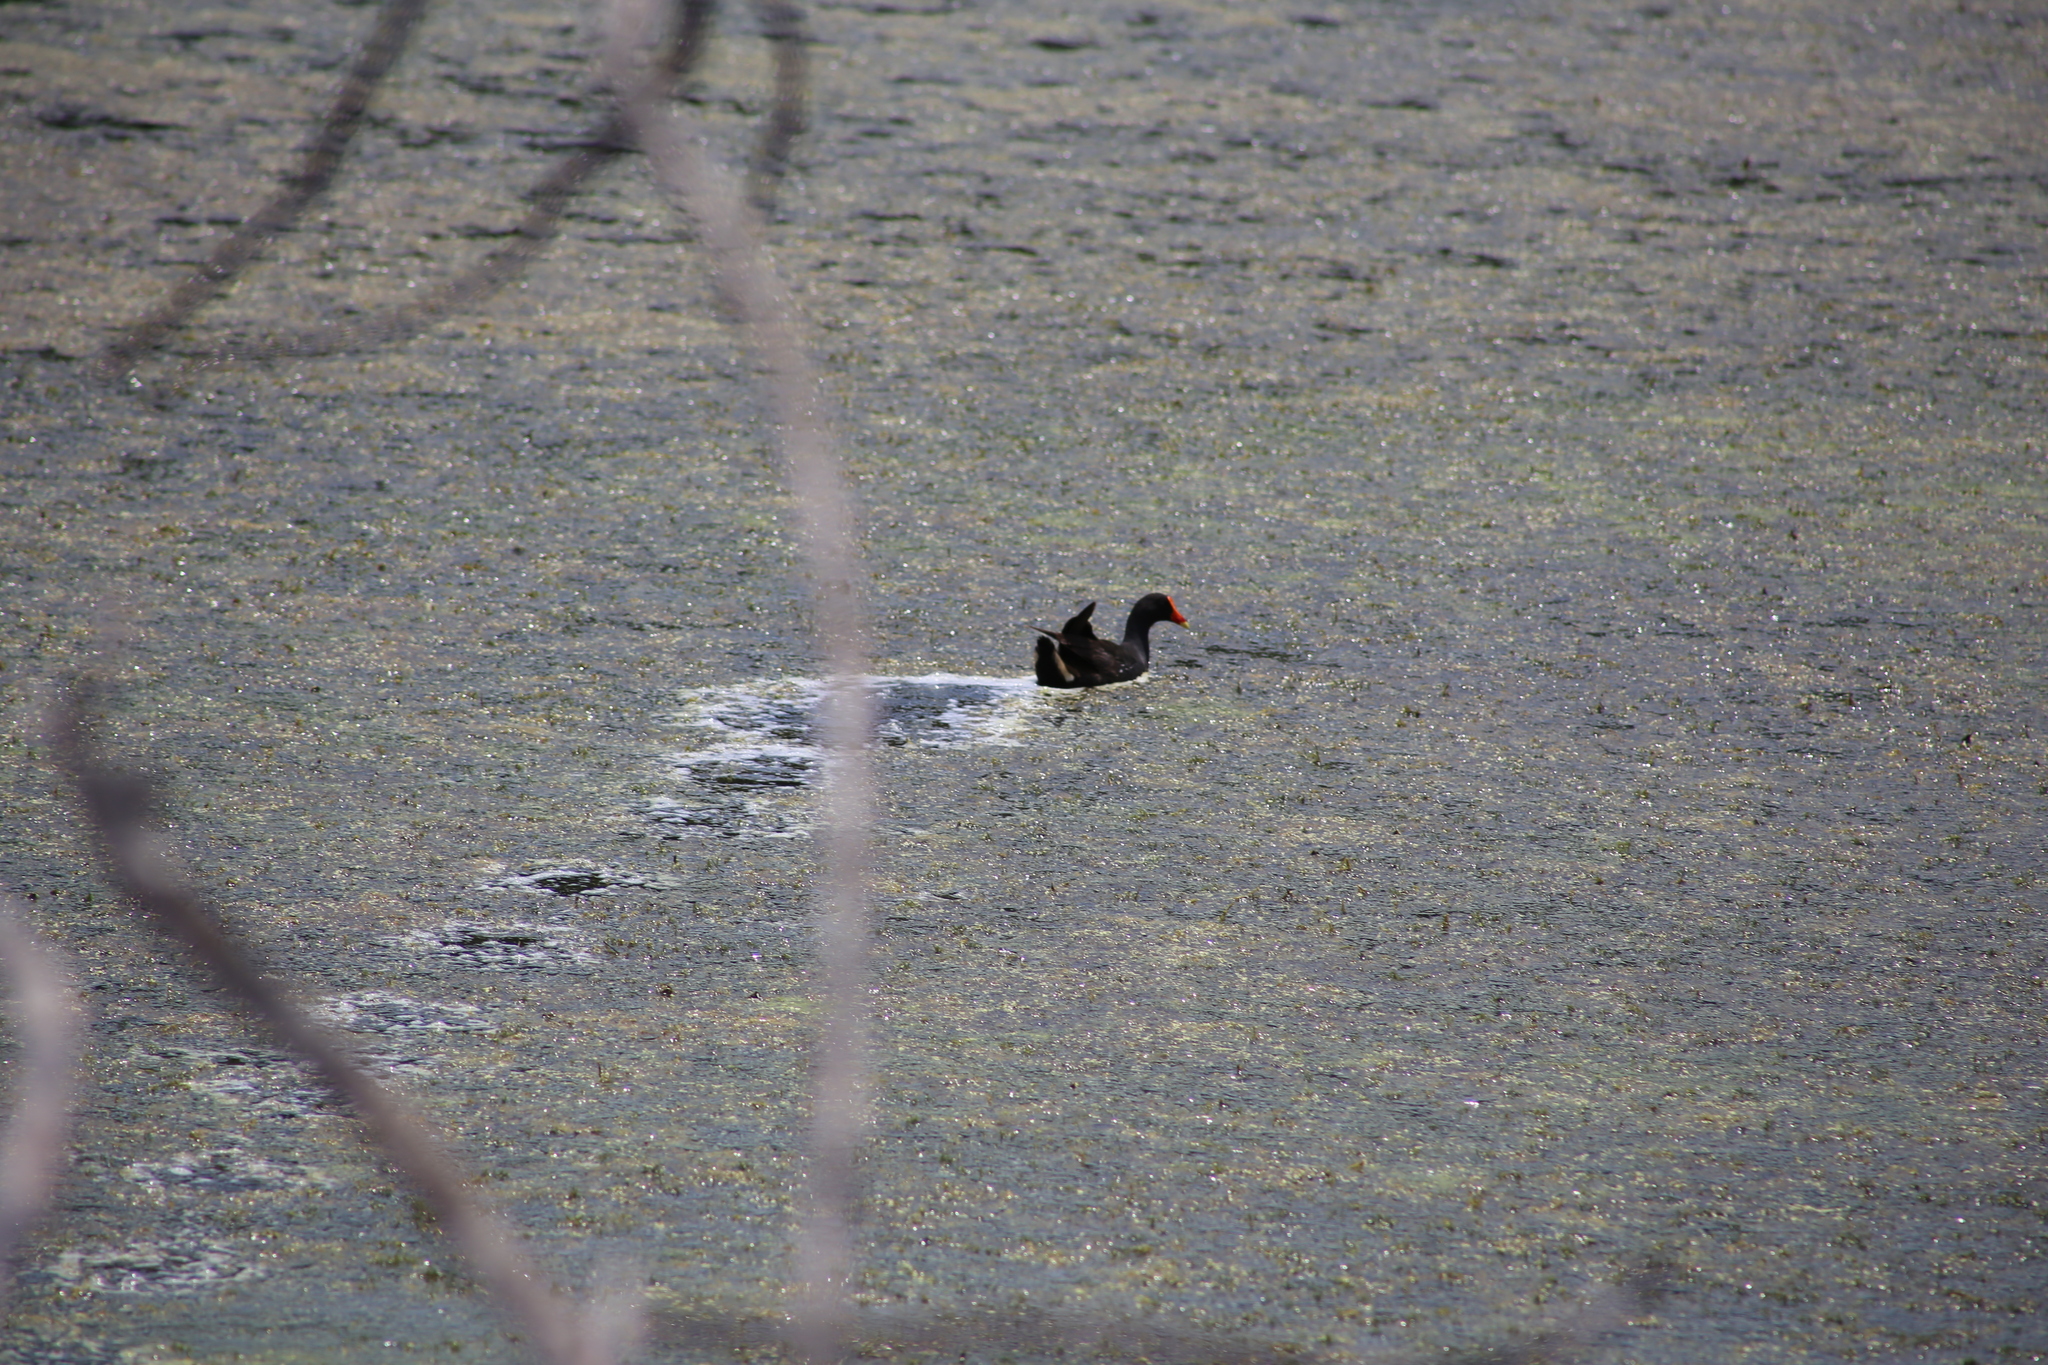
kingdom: Animalia
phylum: Chordata
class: Aves
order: Gruiformes
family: Rallidae
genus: Gallinula
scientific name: Gallinula tenebrosa
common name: Dusky moorhen
